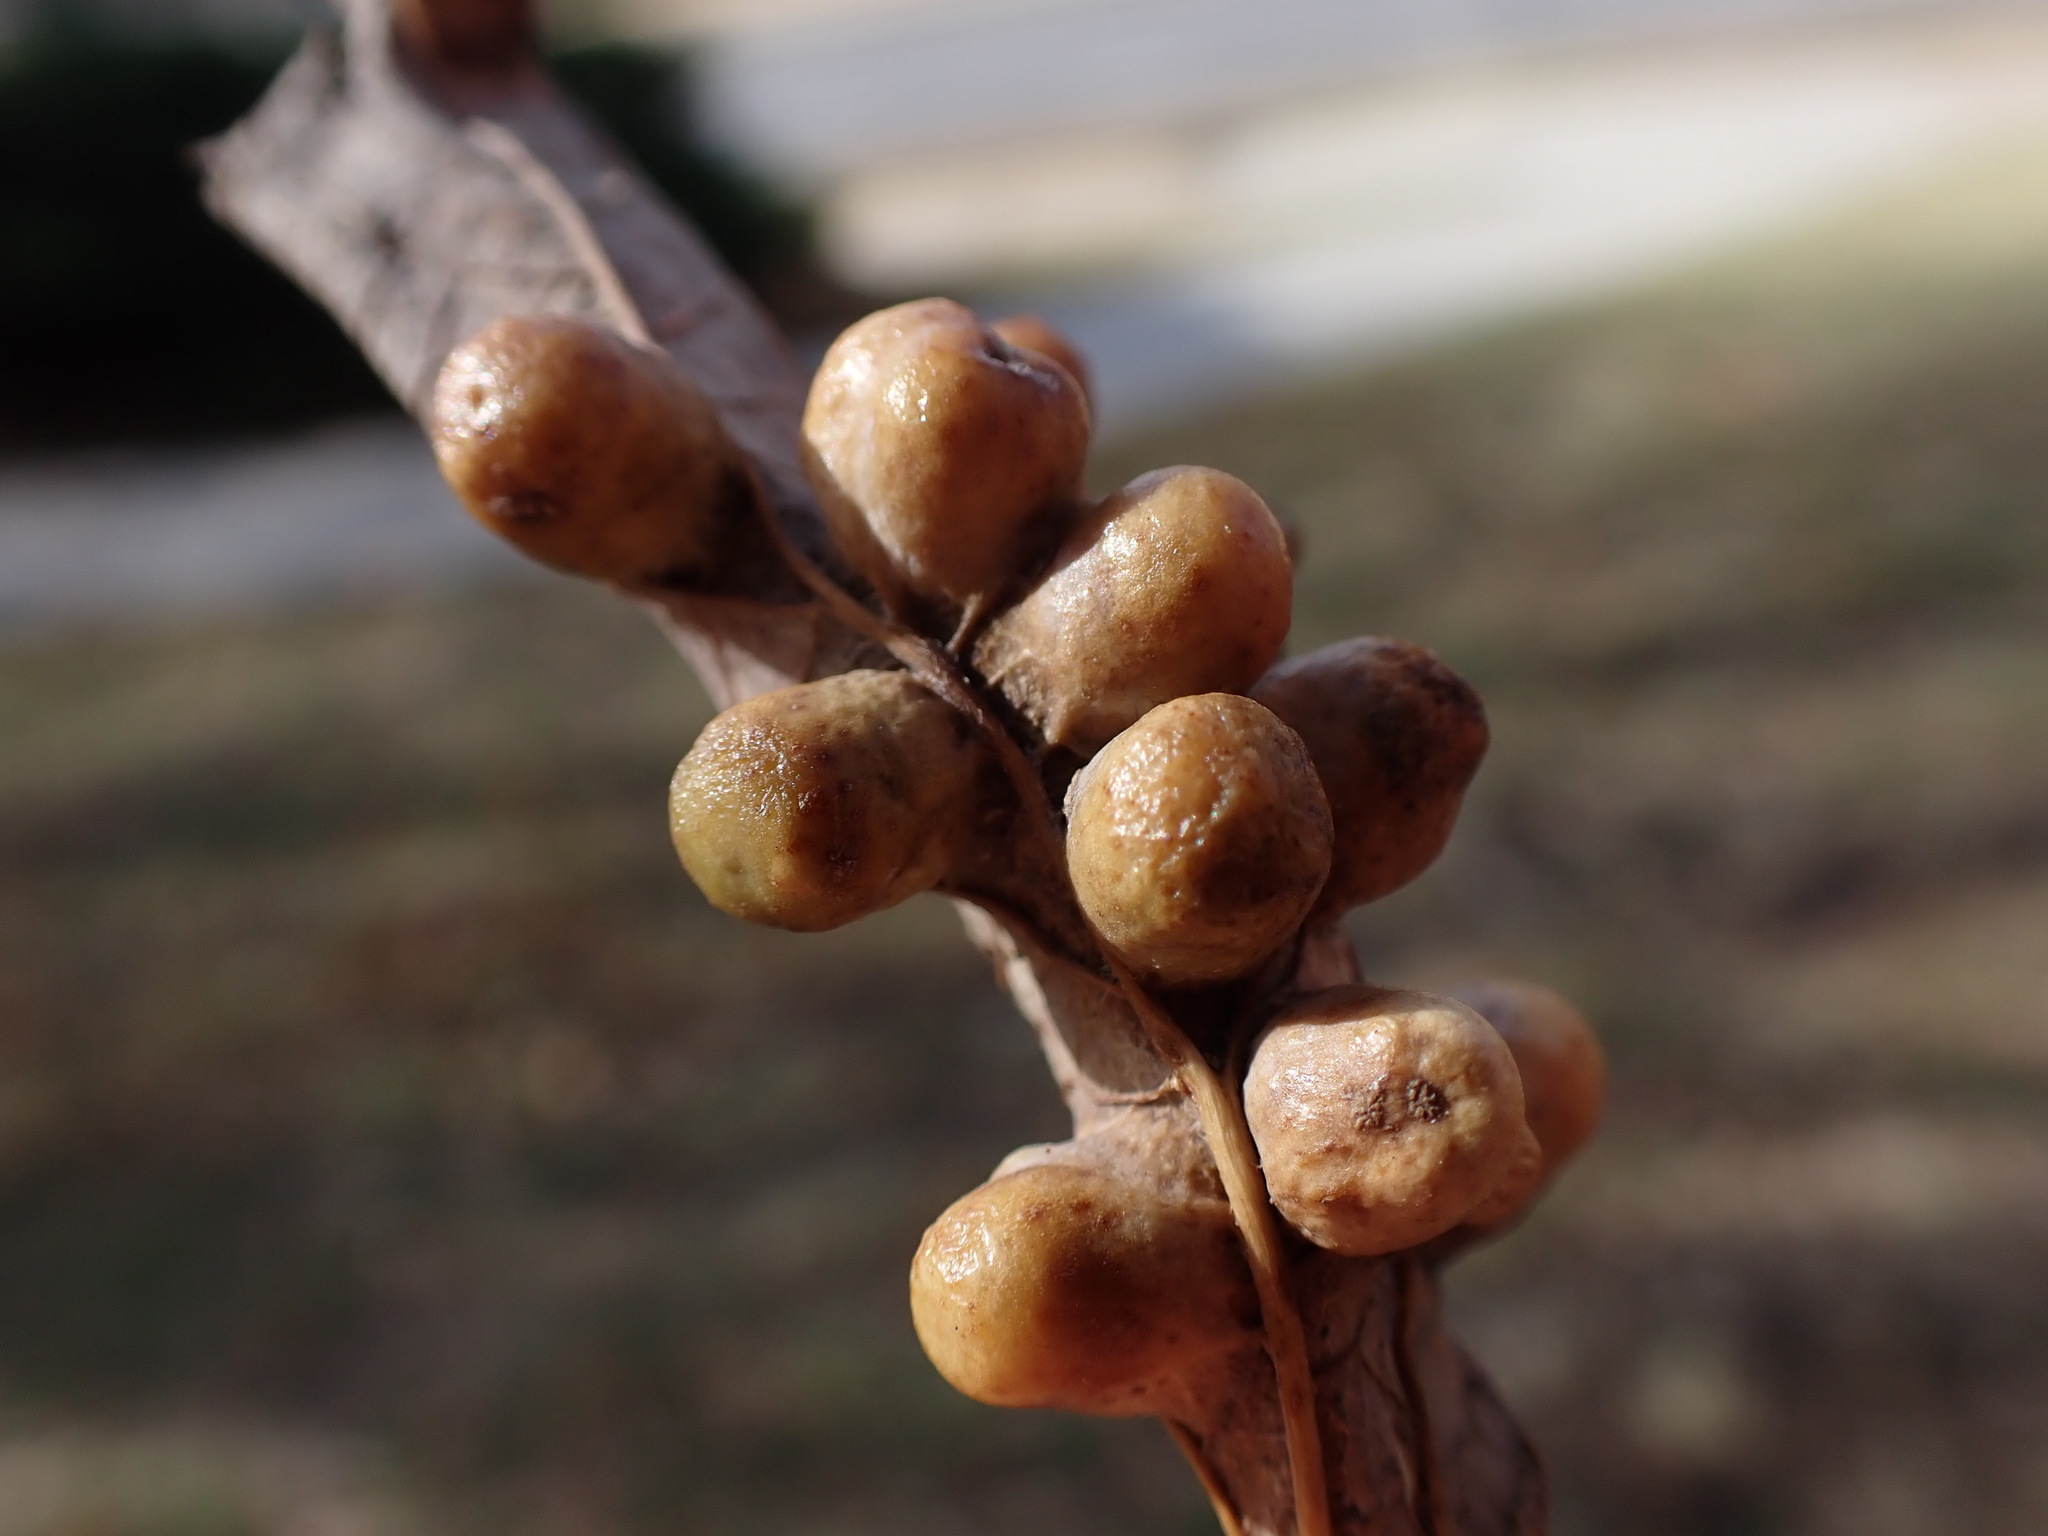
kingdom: Animalia
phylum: Arthropoda
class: Insecta
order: Hemiptera
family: Aphalaridae
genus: Pachypsylla
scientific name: Pachypsylla celtidismamma
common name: Hackberry nipplegall psyllid
